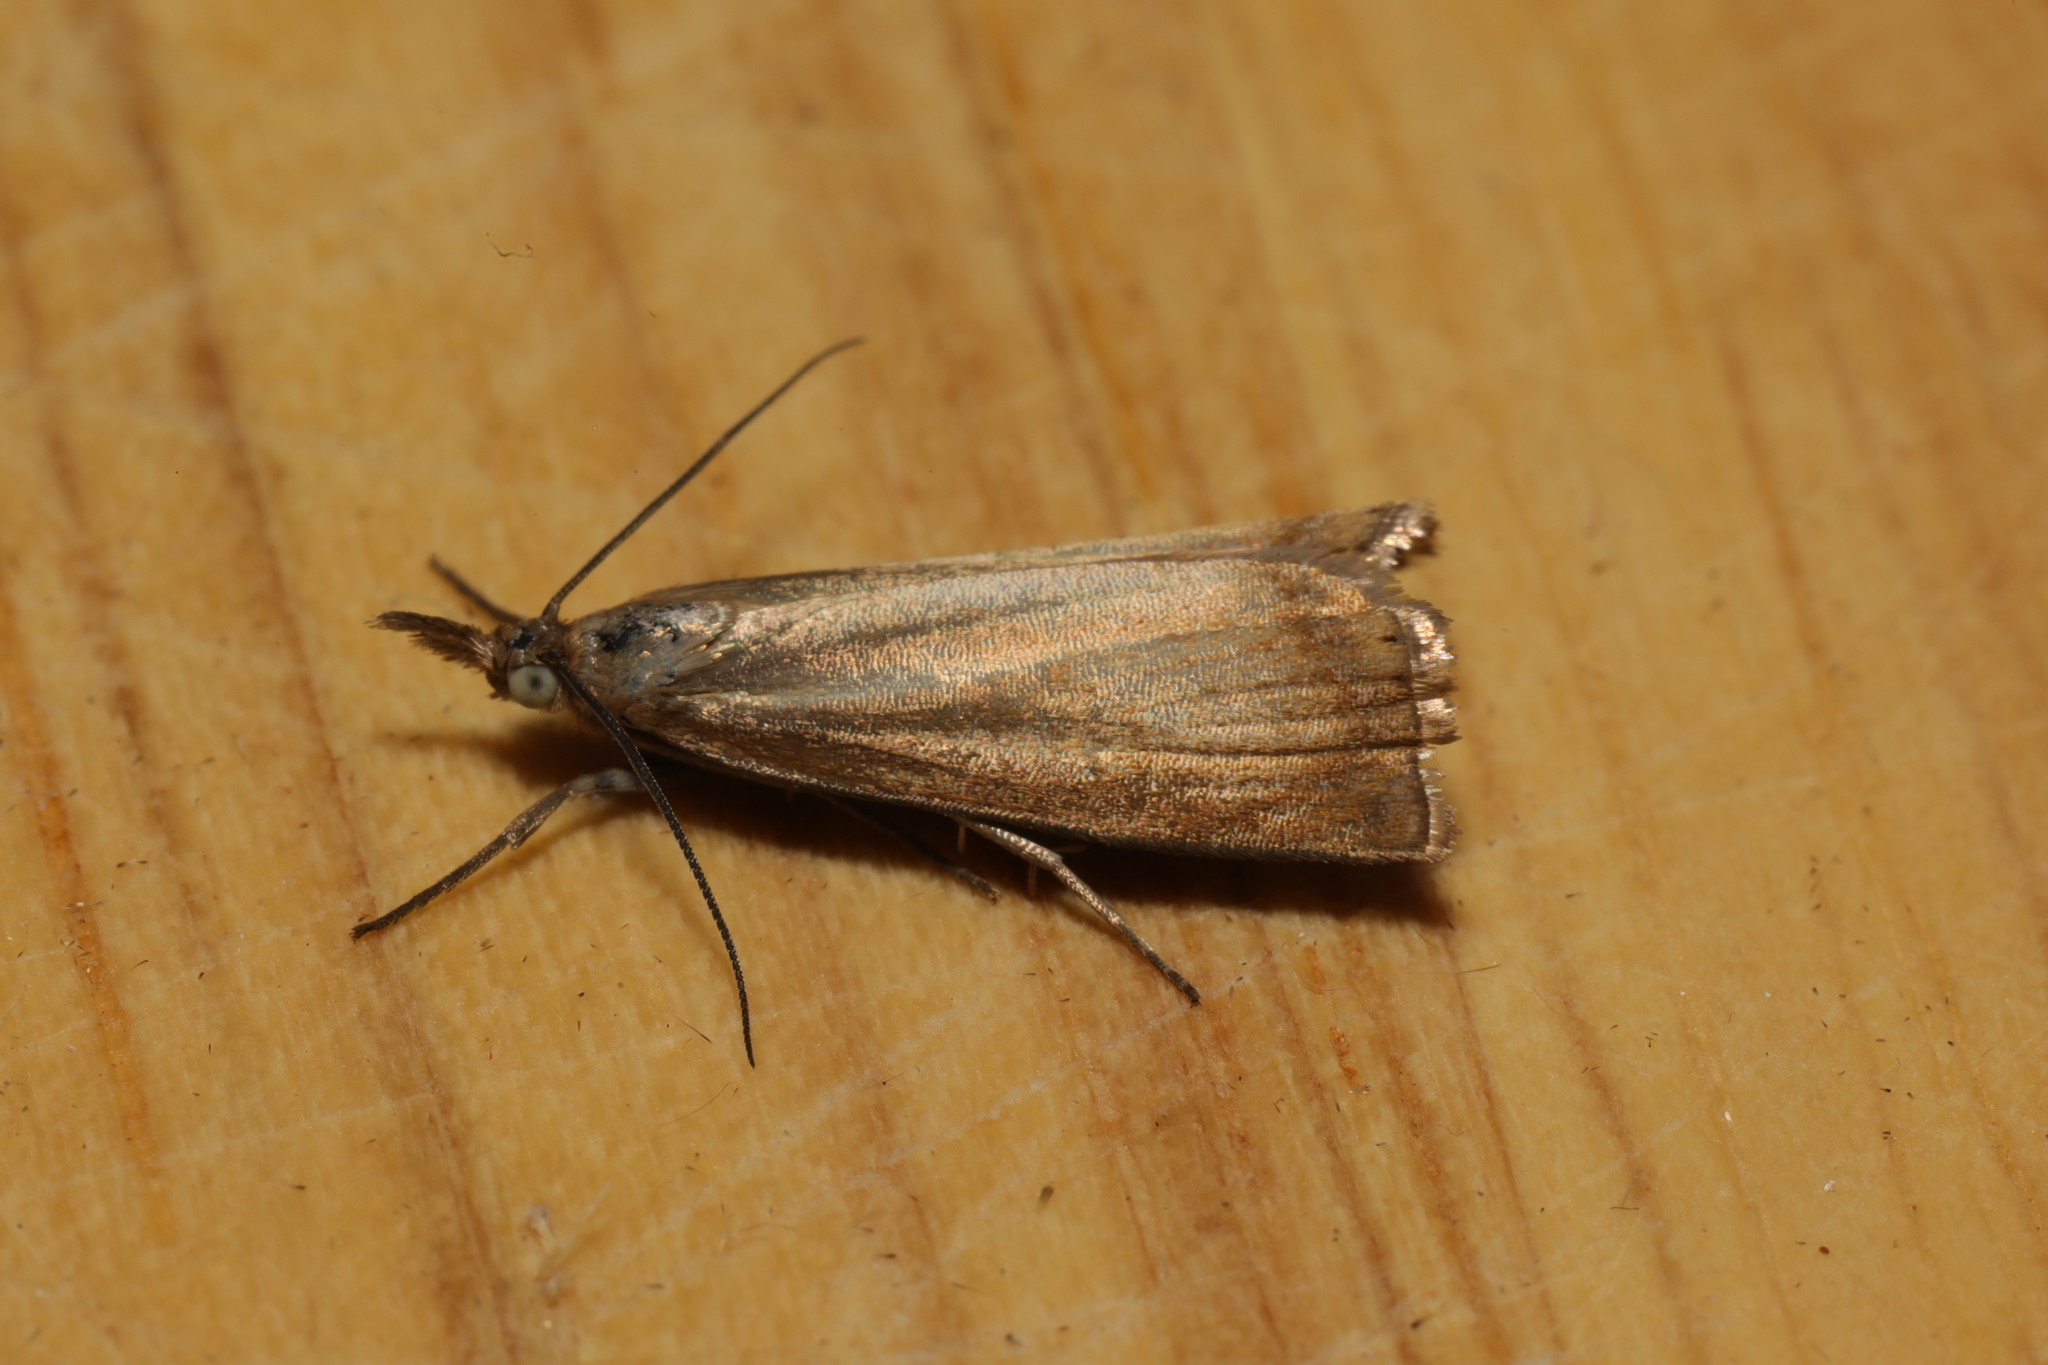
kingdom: Animalia
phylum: Arthropoda
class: Insecta
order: Lepidoptera
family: Crambidae
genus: Chrysoteuchia
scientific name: Chrysoteuchia culmella
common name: Garden grass-veneer
